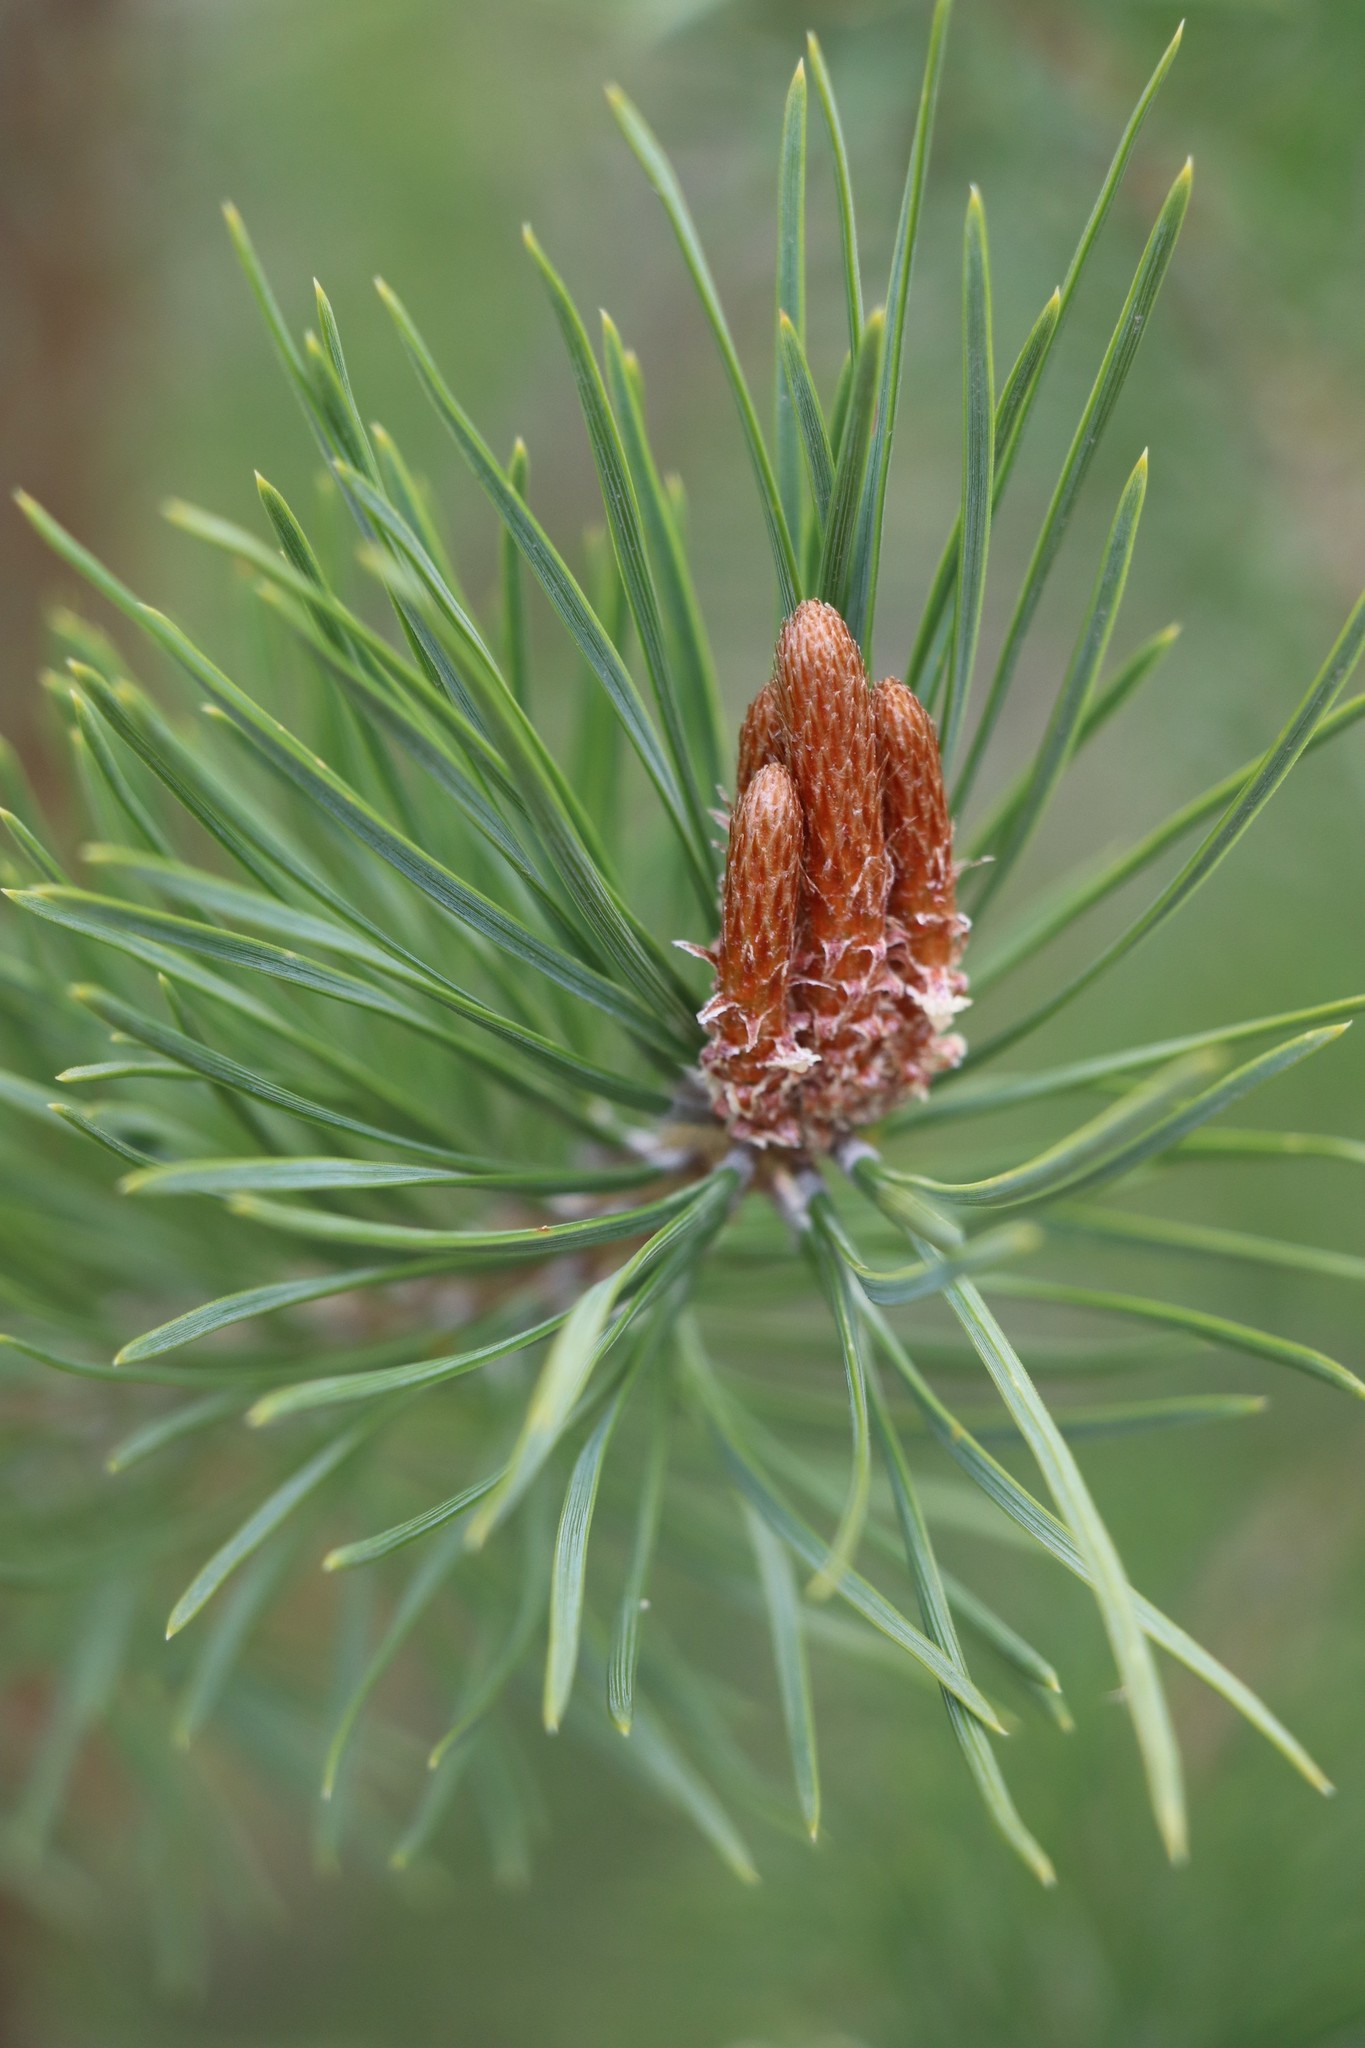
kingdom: Plantae
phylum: Tracheophyta
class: Pinopsida
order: Pinales
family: Pinaceae
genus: Pinus
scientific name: Pinus sylvestris
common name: Scots pine
